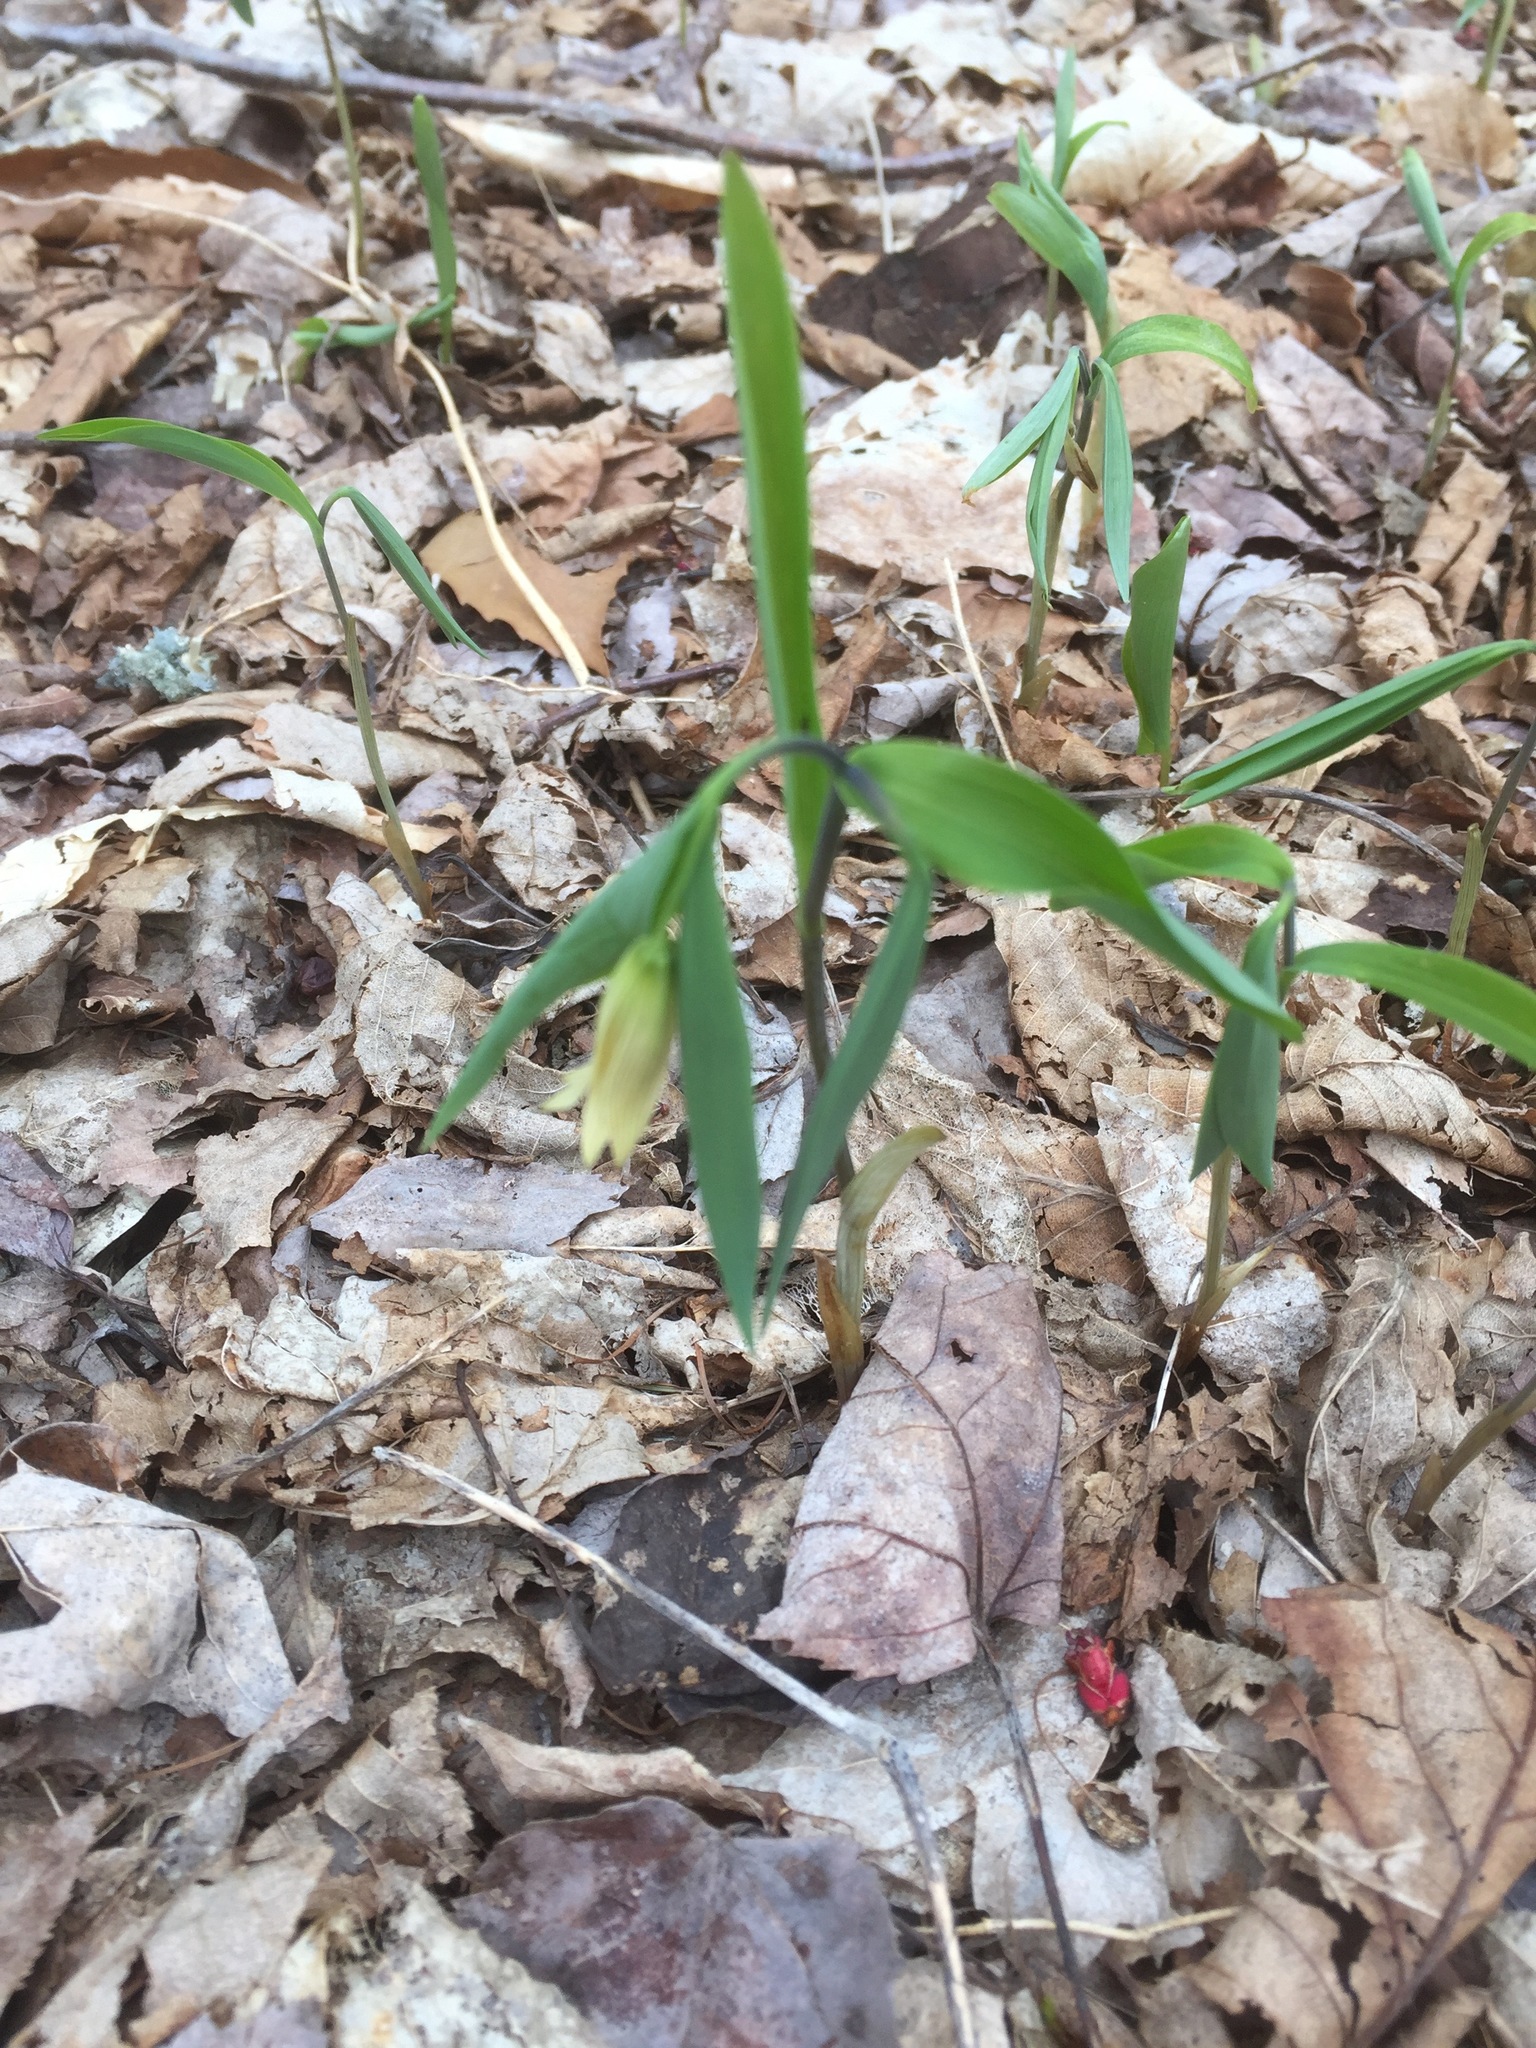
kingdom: Plantae
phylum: Tracheophyta
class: Liliopsida
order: Liliales
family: Colchicaceae
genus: Uvularia
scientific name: Uvularia sessilifolia
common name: Straw-lily
